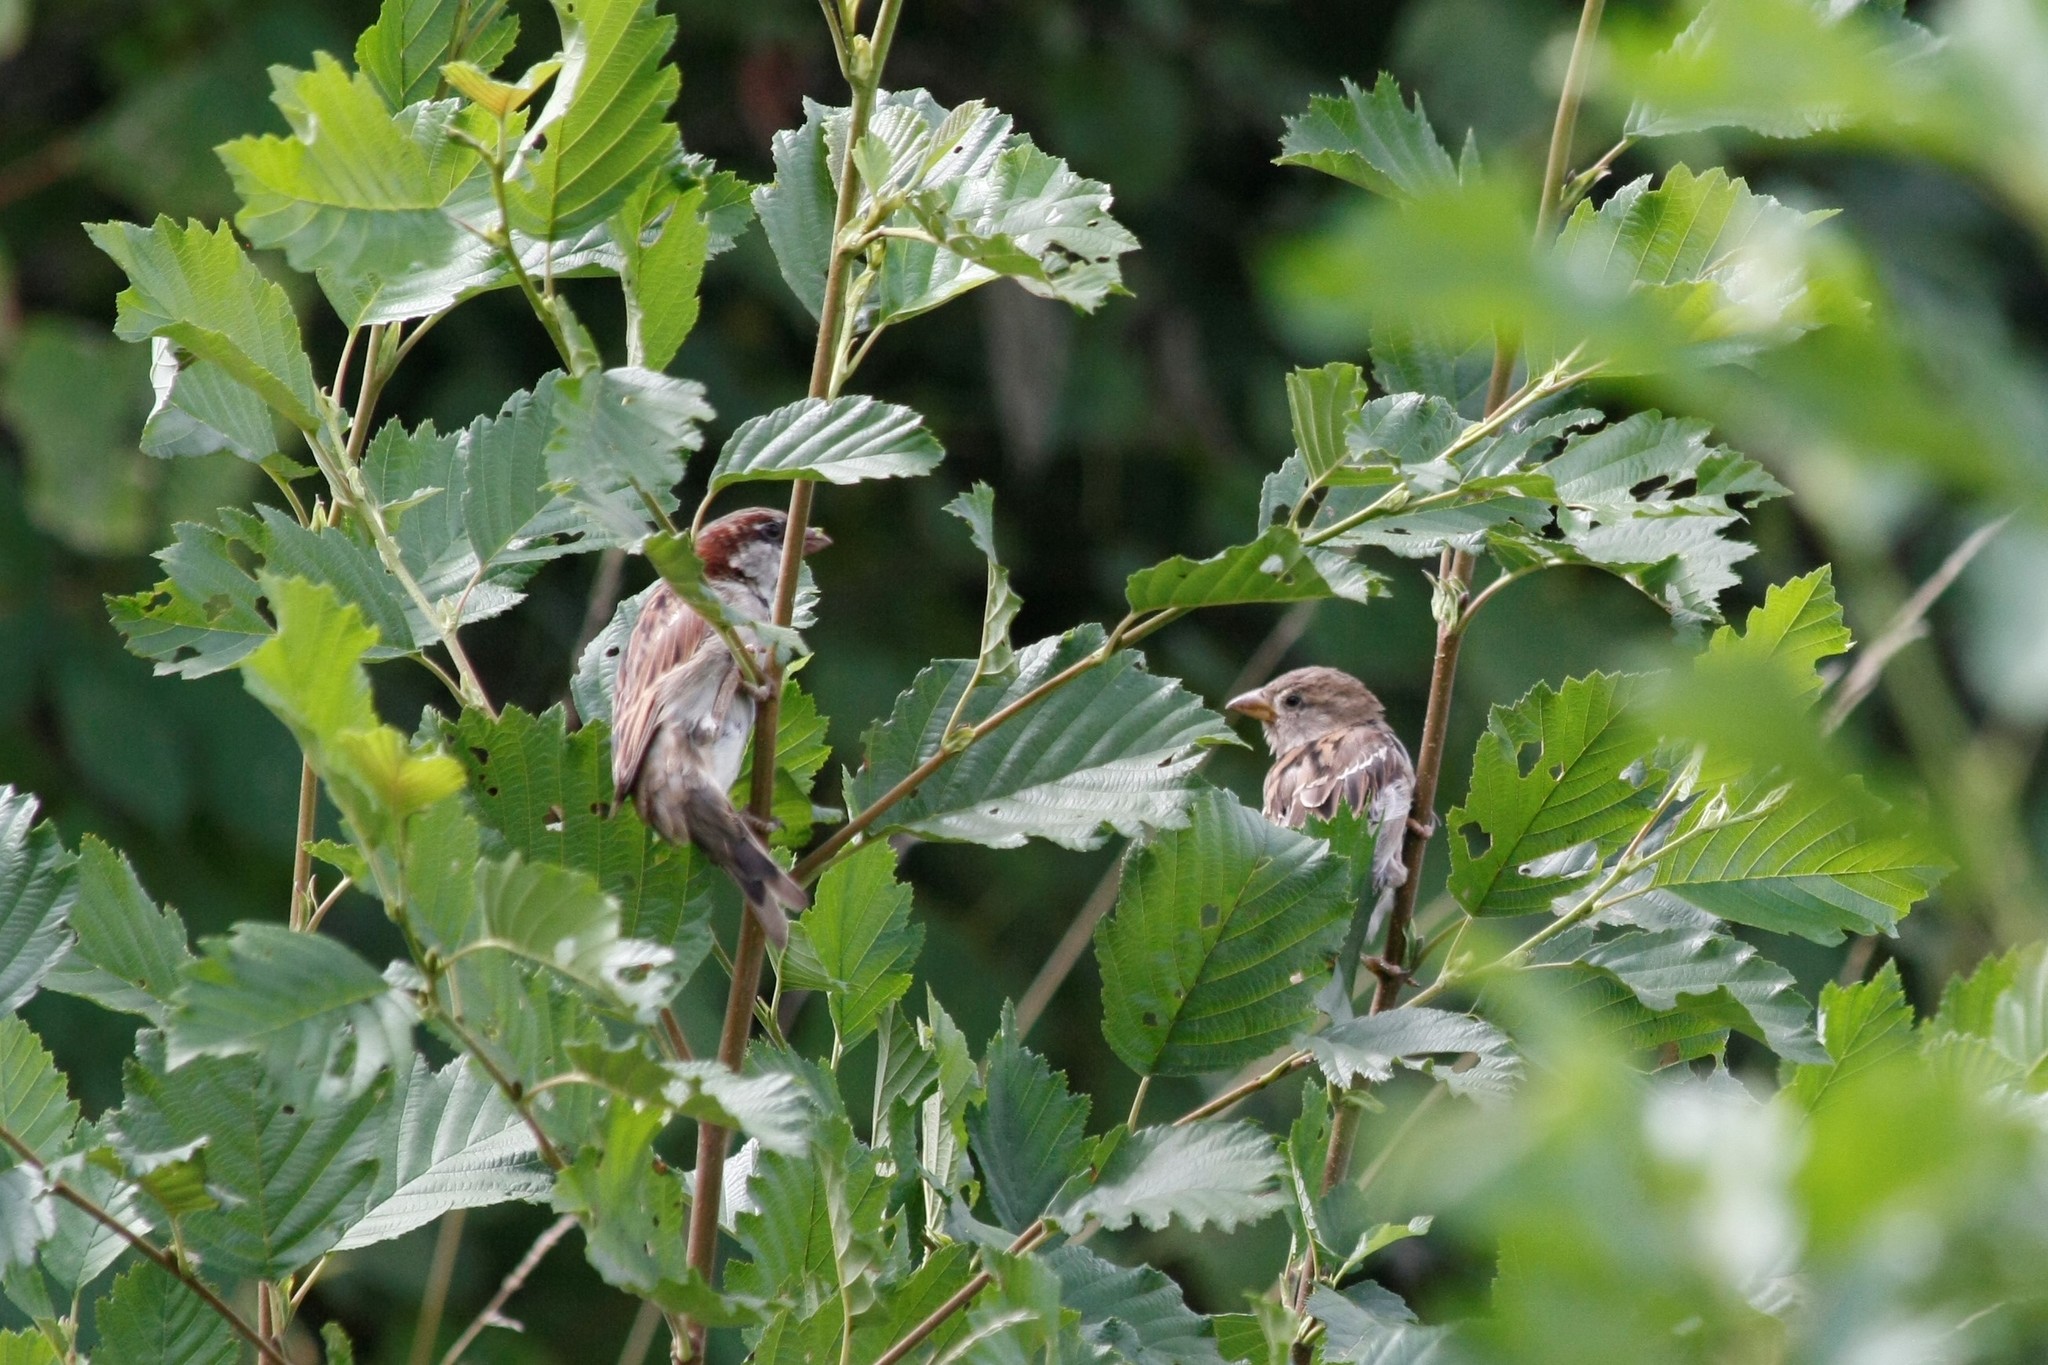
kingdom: Animalia
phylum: Chordata
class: Aves
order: Passeriformes
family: Passeridae
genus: Passer
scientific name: Passer domesticus
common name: House sparrow
